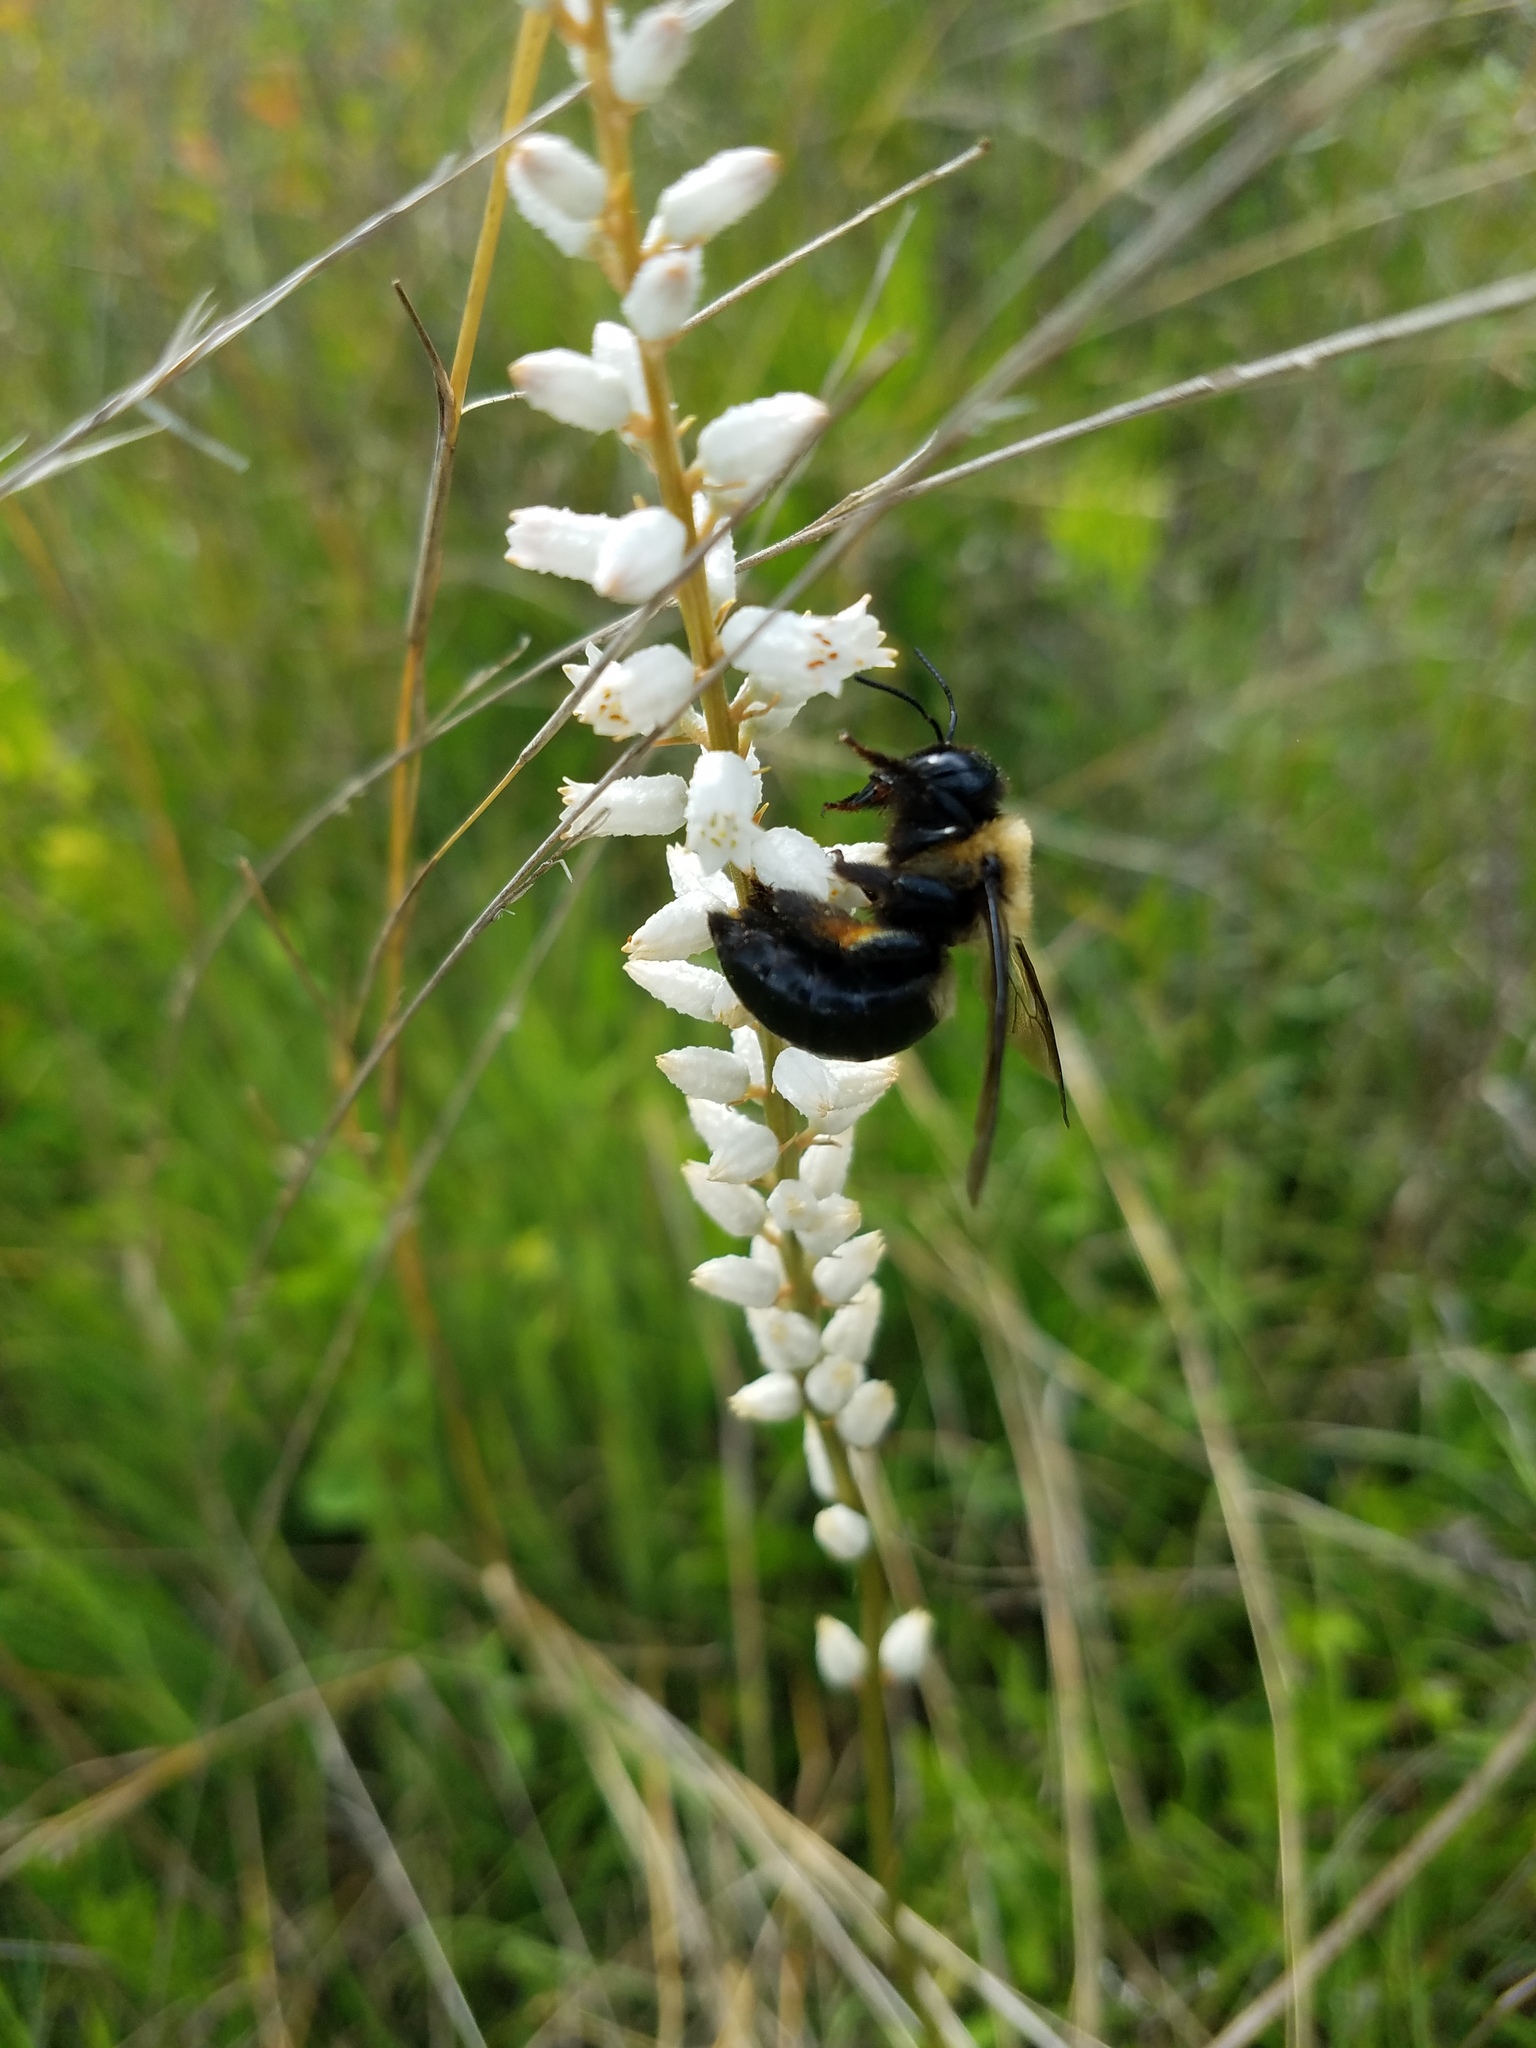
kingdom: Animalia
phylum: Arthropoda
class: Insecta
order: Hymenoptera
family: Apidae
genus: Xylocopa
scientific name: Xylocopa virginica
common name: Carpenter bee
